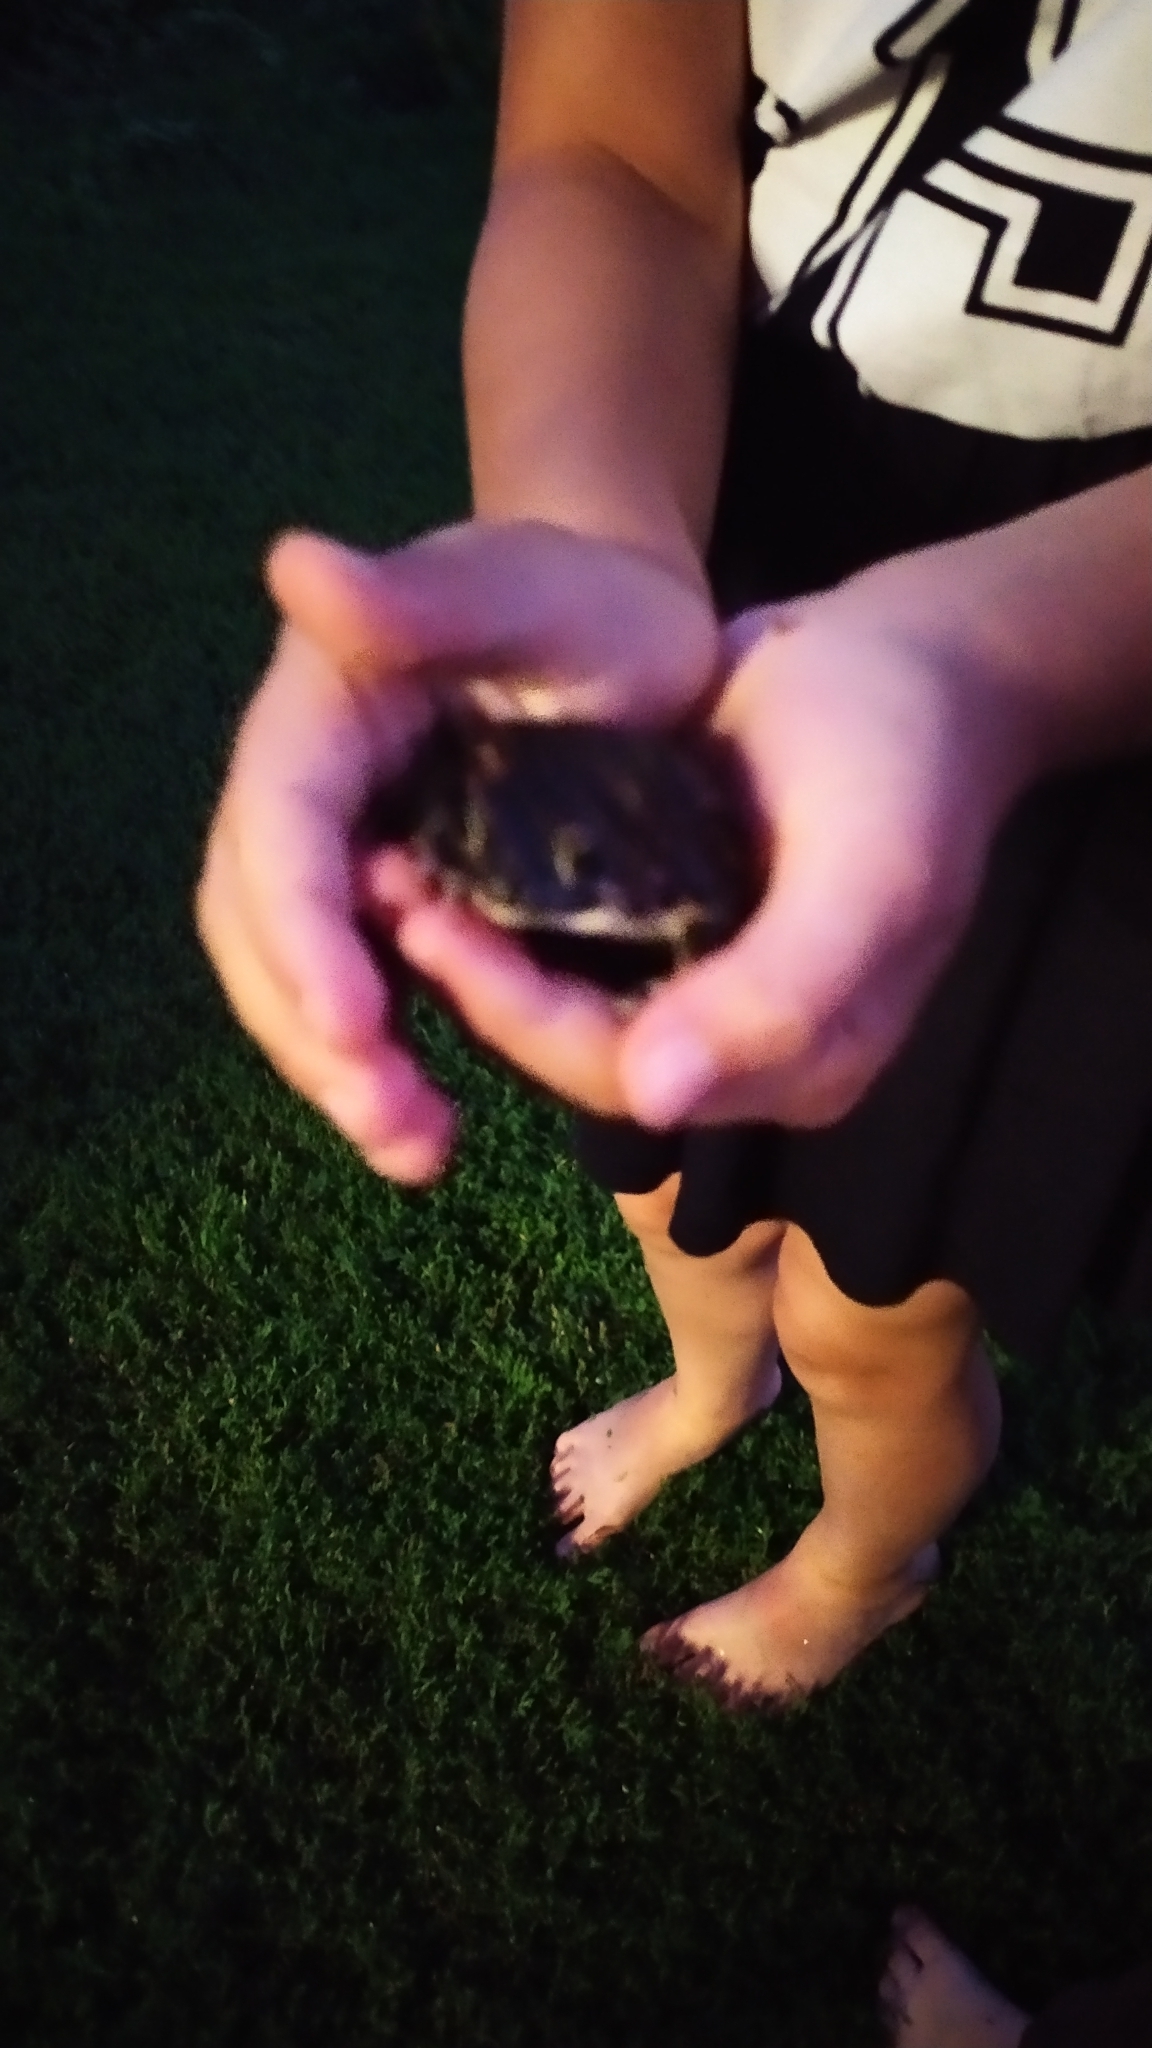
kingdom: Animalia
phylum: Chordata
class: Amphibia
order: Anura
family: Bufonidae
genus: Bufotes
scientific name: Bufotes viridis
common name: European green toad
